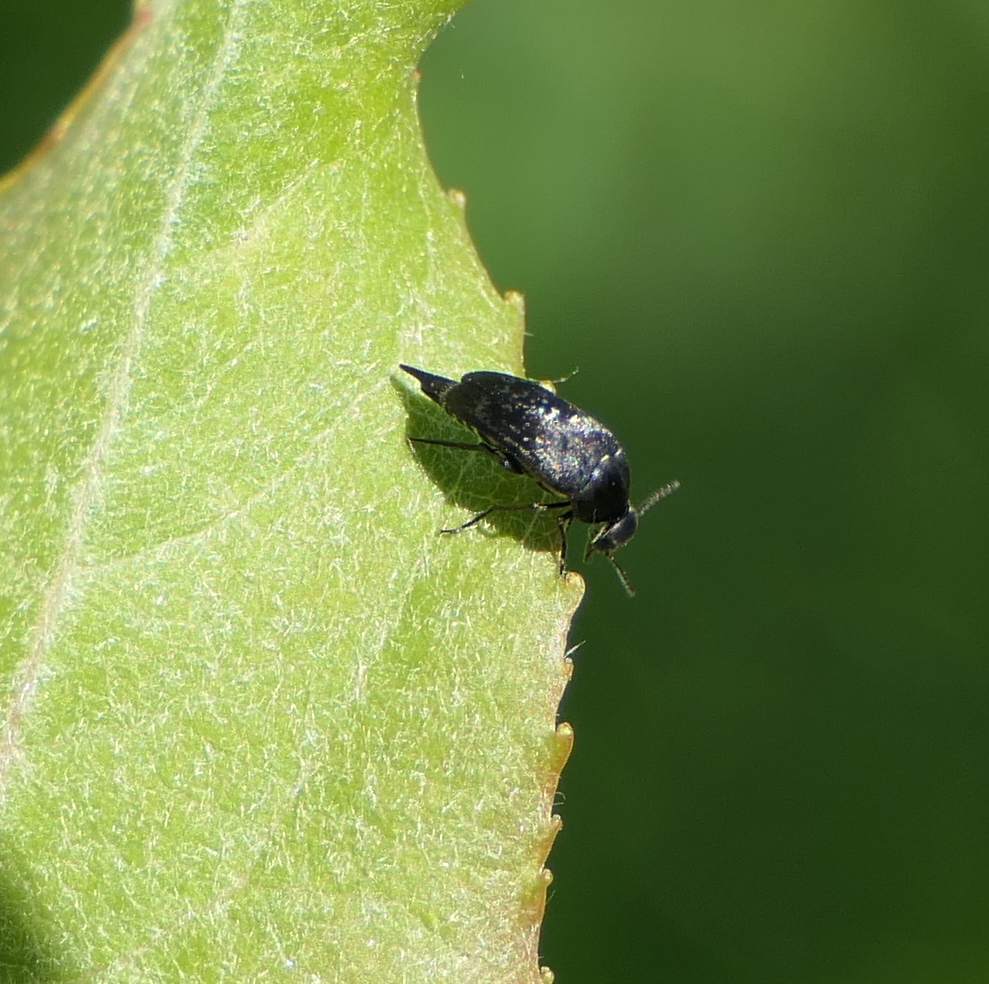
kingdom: Animalia
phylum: Arthropoda
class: Insecta
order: Coleoptera
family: Mordellidae
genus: Mordella
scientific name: Mordella marginata
